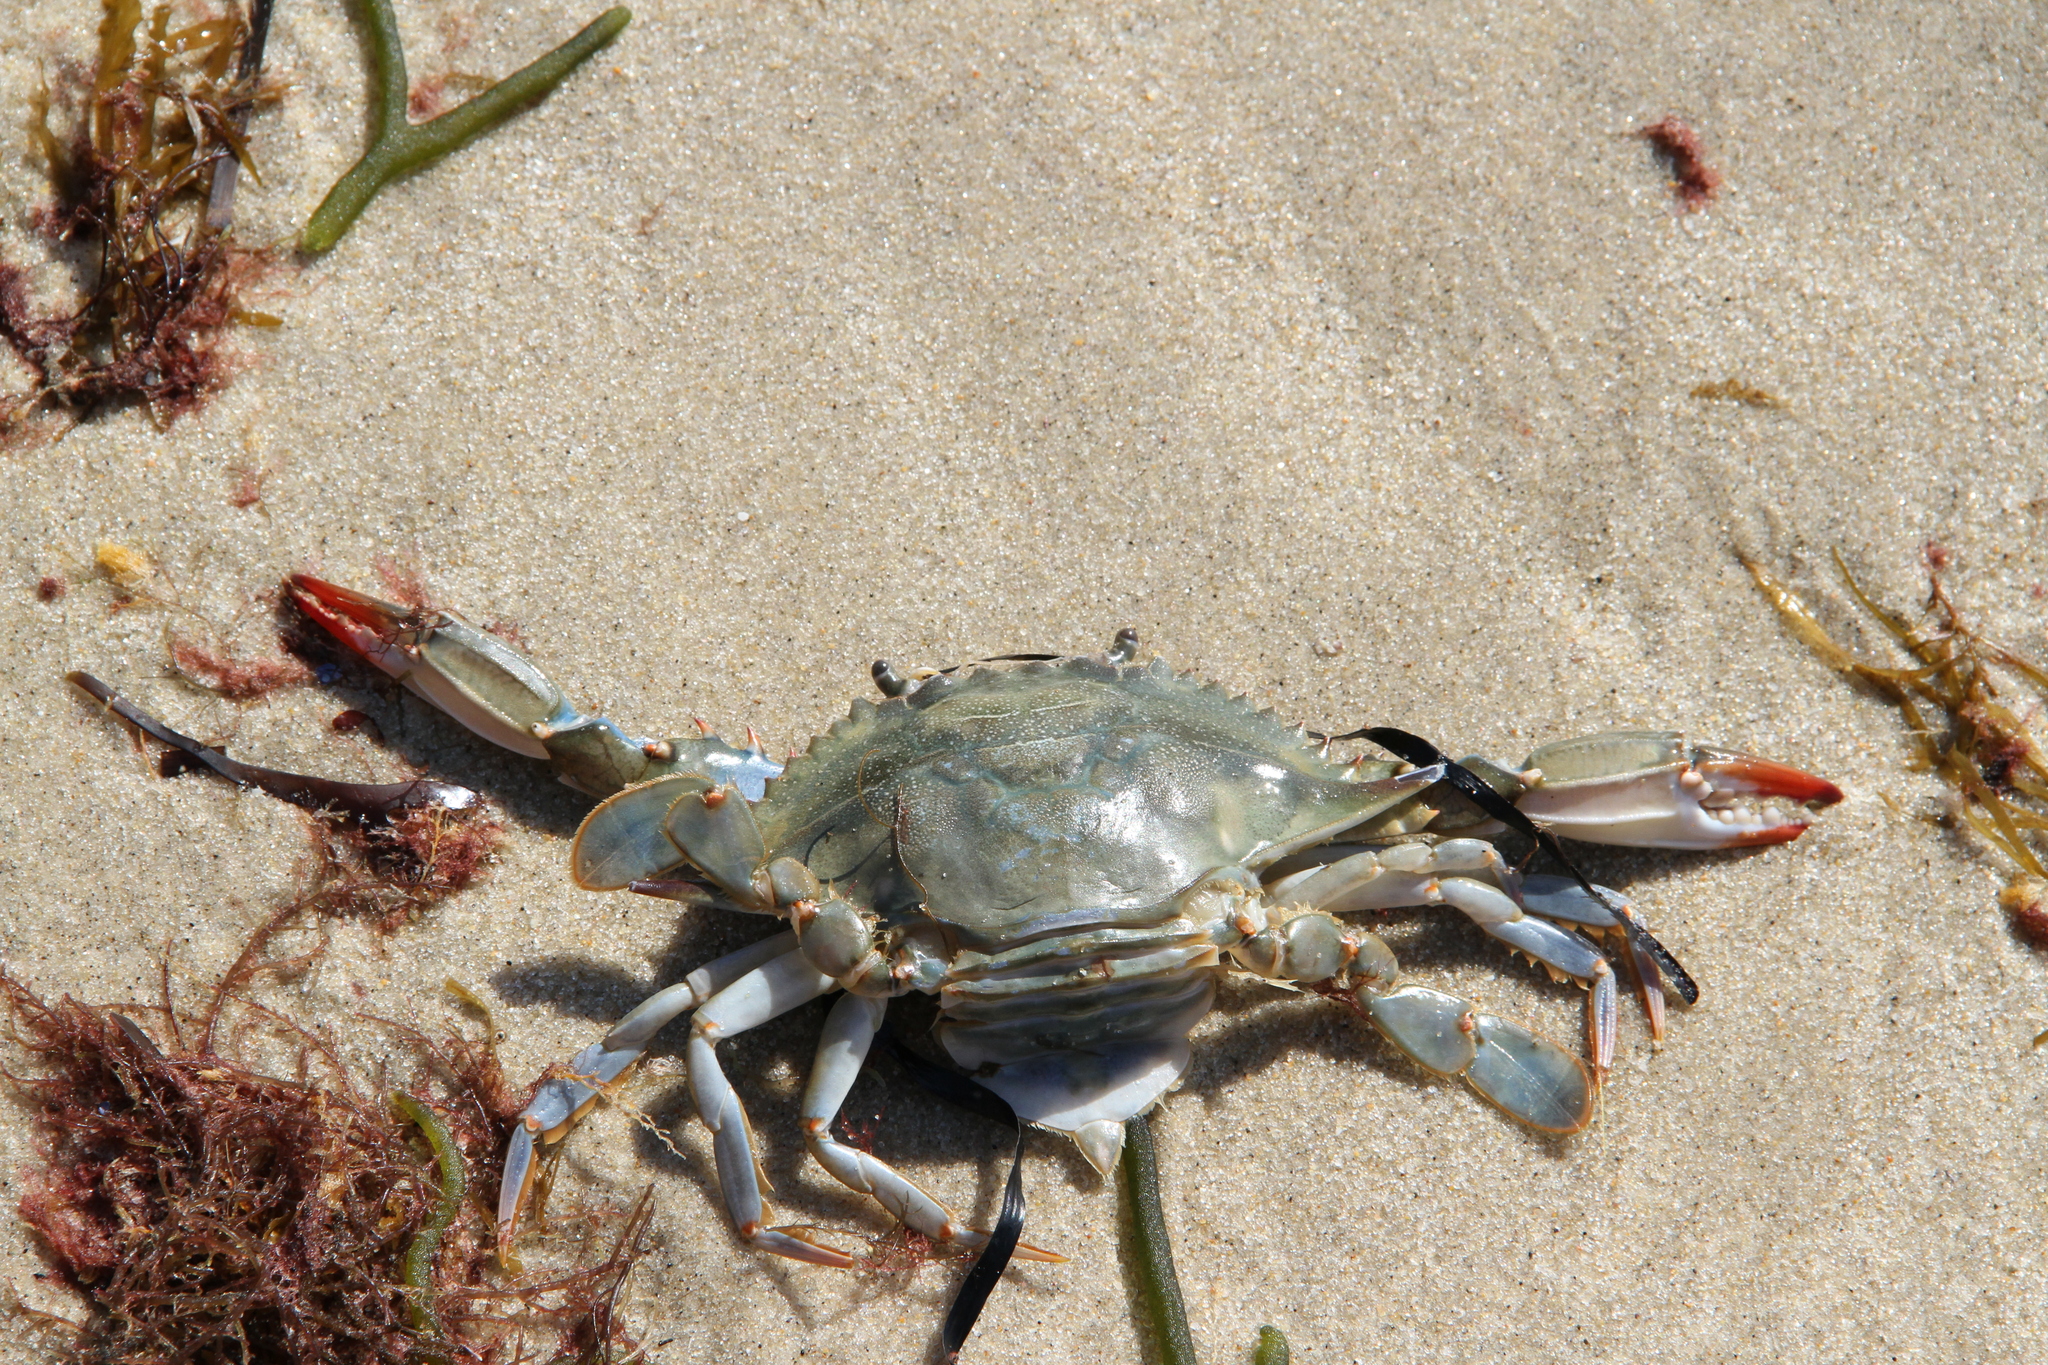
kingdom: Animalia
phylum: Arthropoda
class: Malacostraca
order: Decapoda
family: Portunidae
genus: Callinectes
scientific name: Callinectes sapidus
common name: Blue crab
